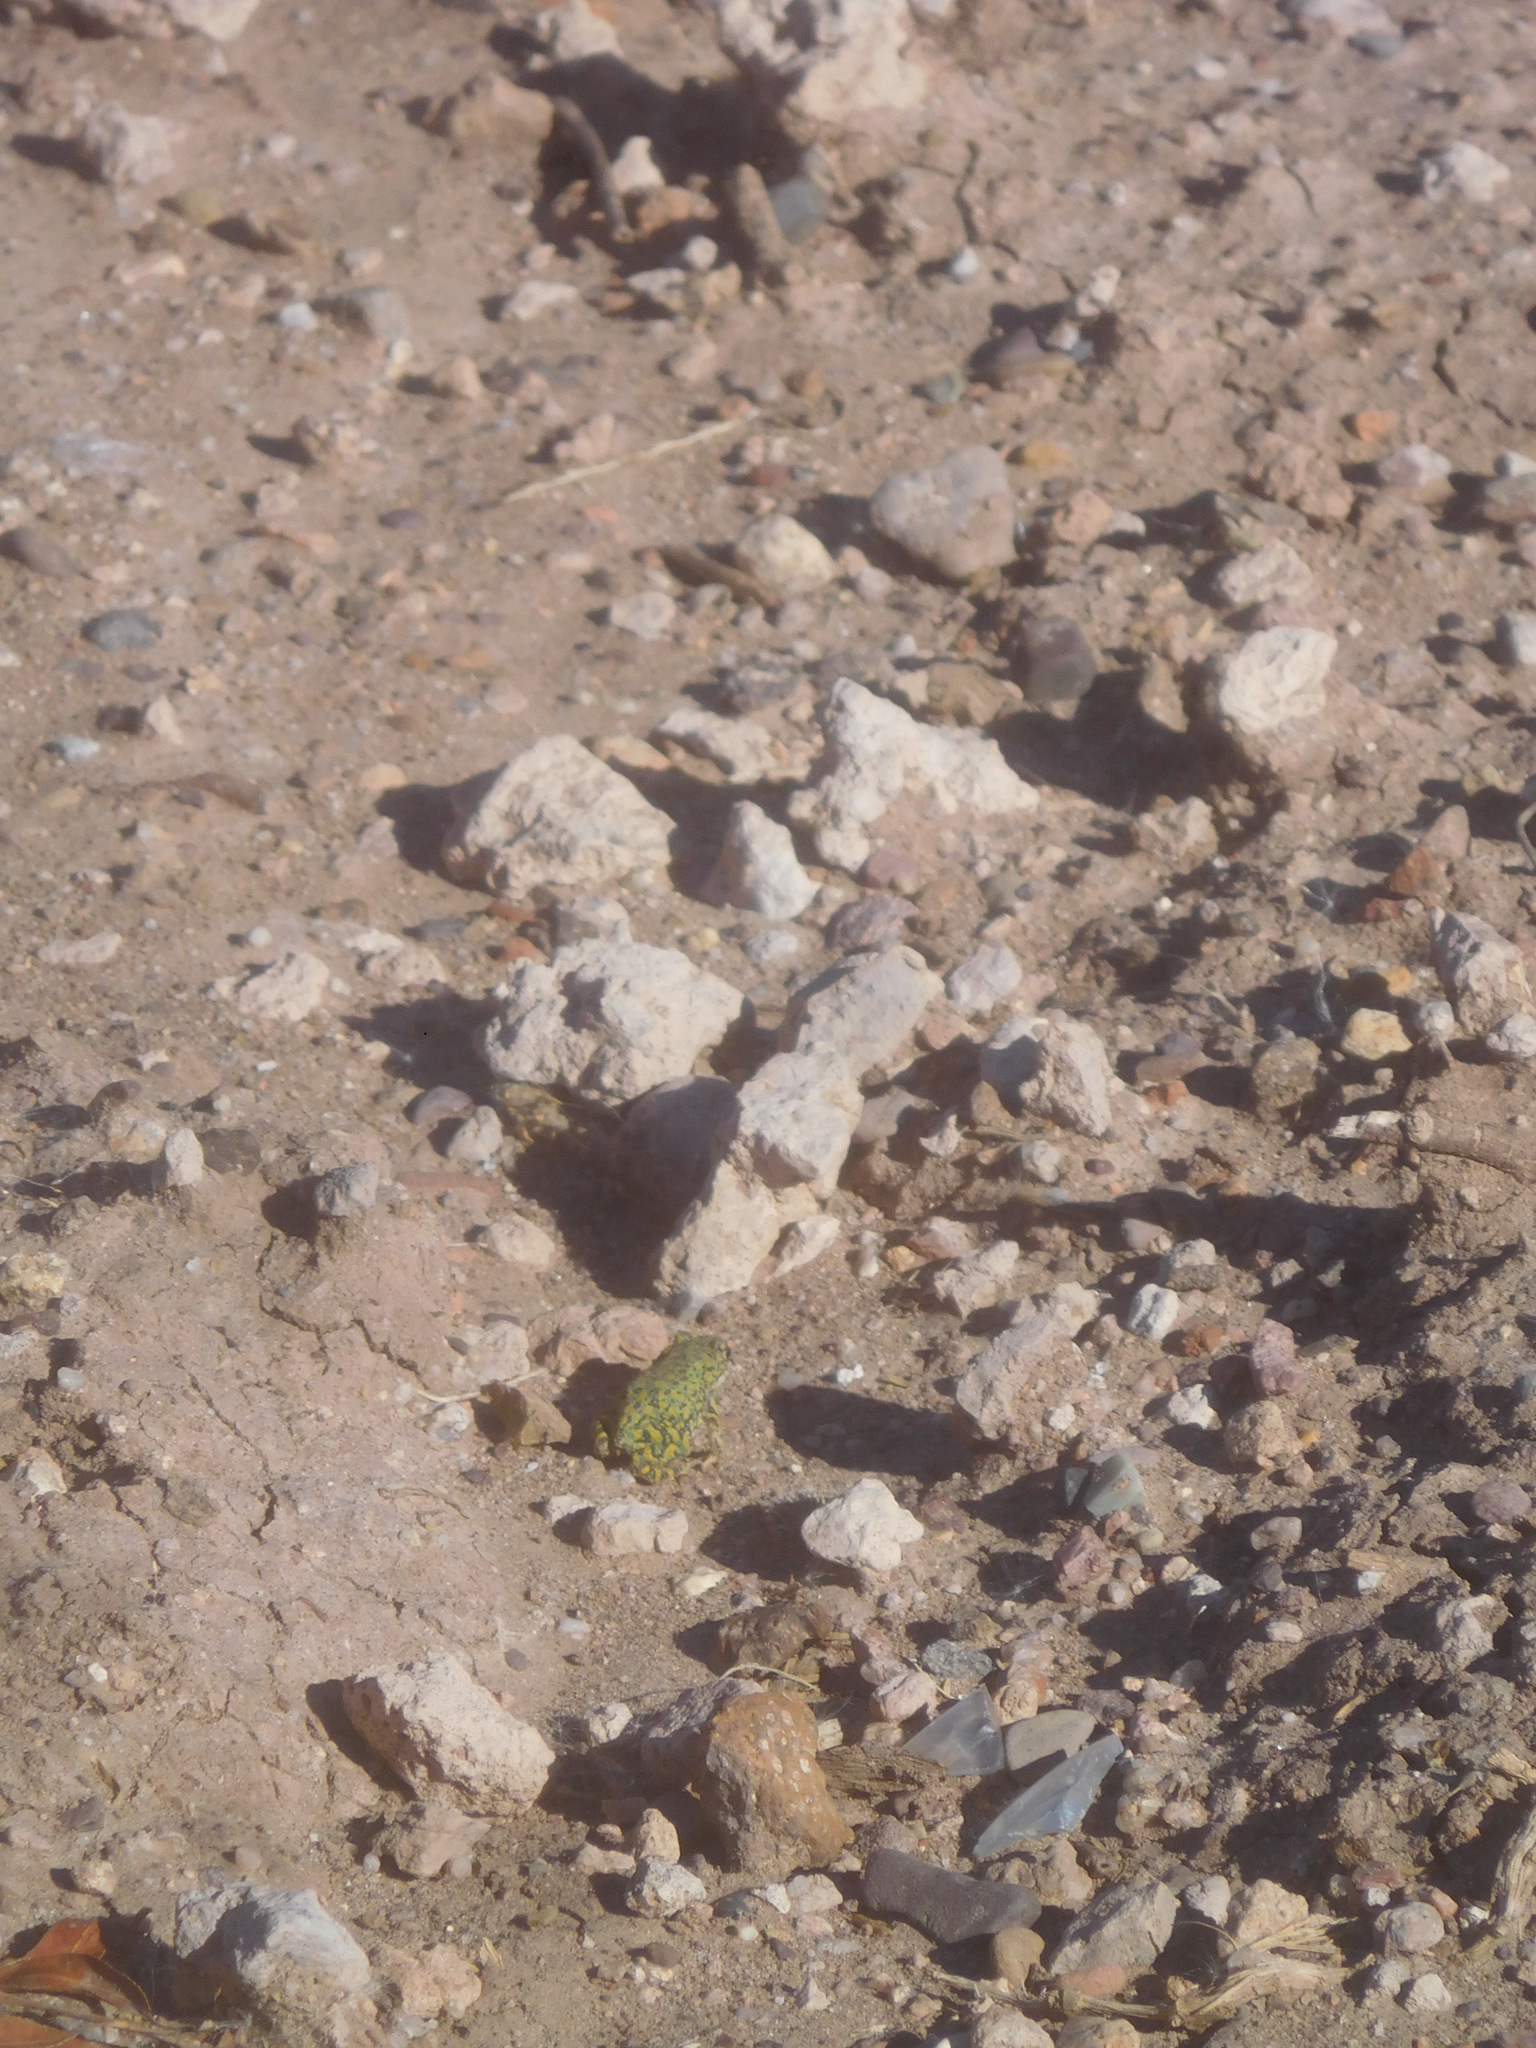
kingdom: Animalia
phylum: Chordata
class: Amphibia
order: Anura
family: Bufonidae
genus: Anaxyrus
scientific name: Anaxyrus debilis
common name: Green toad
